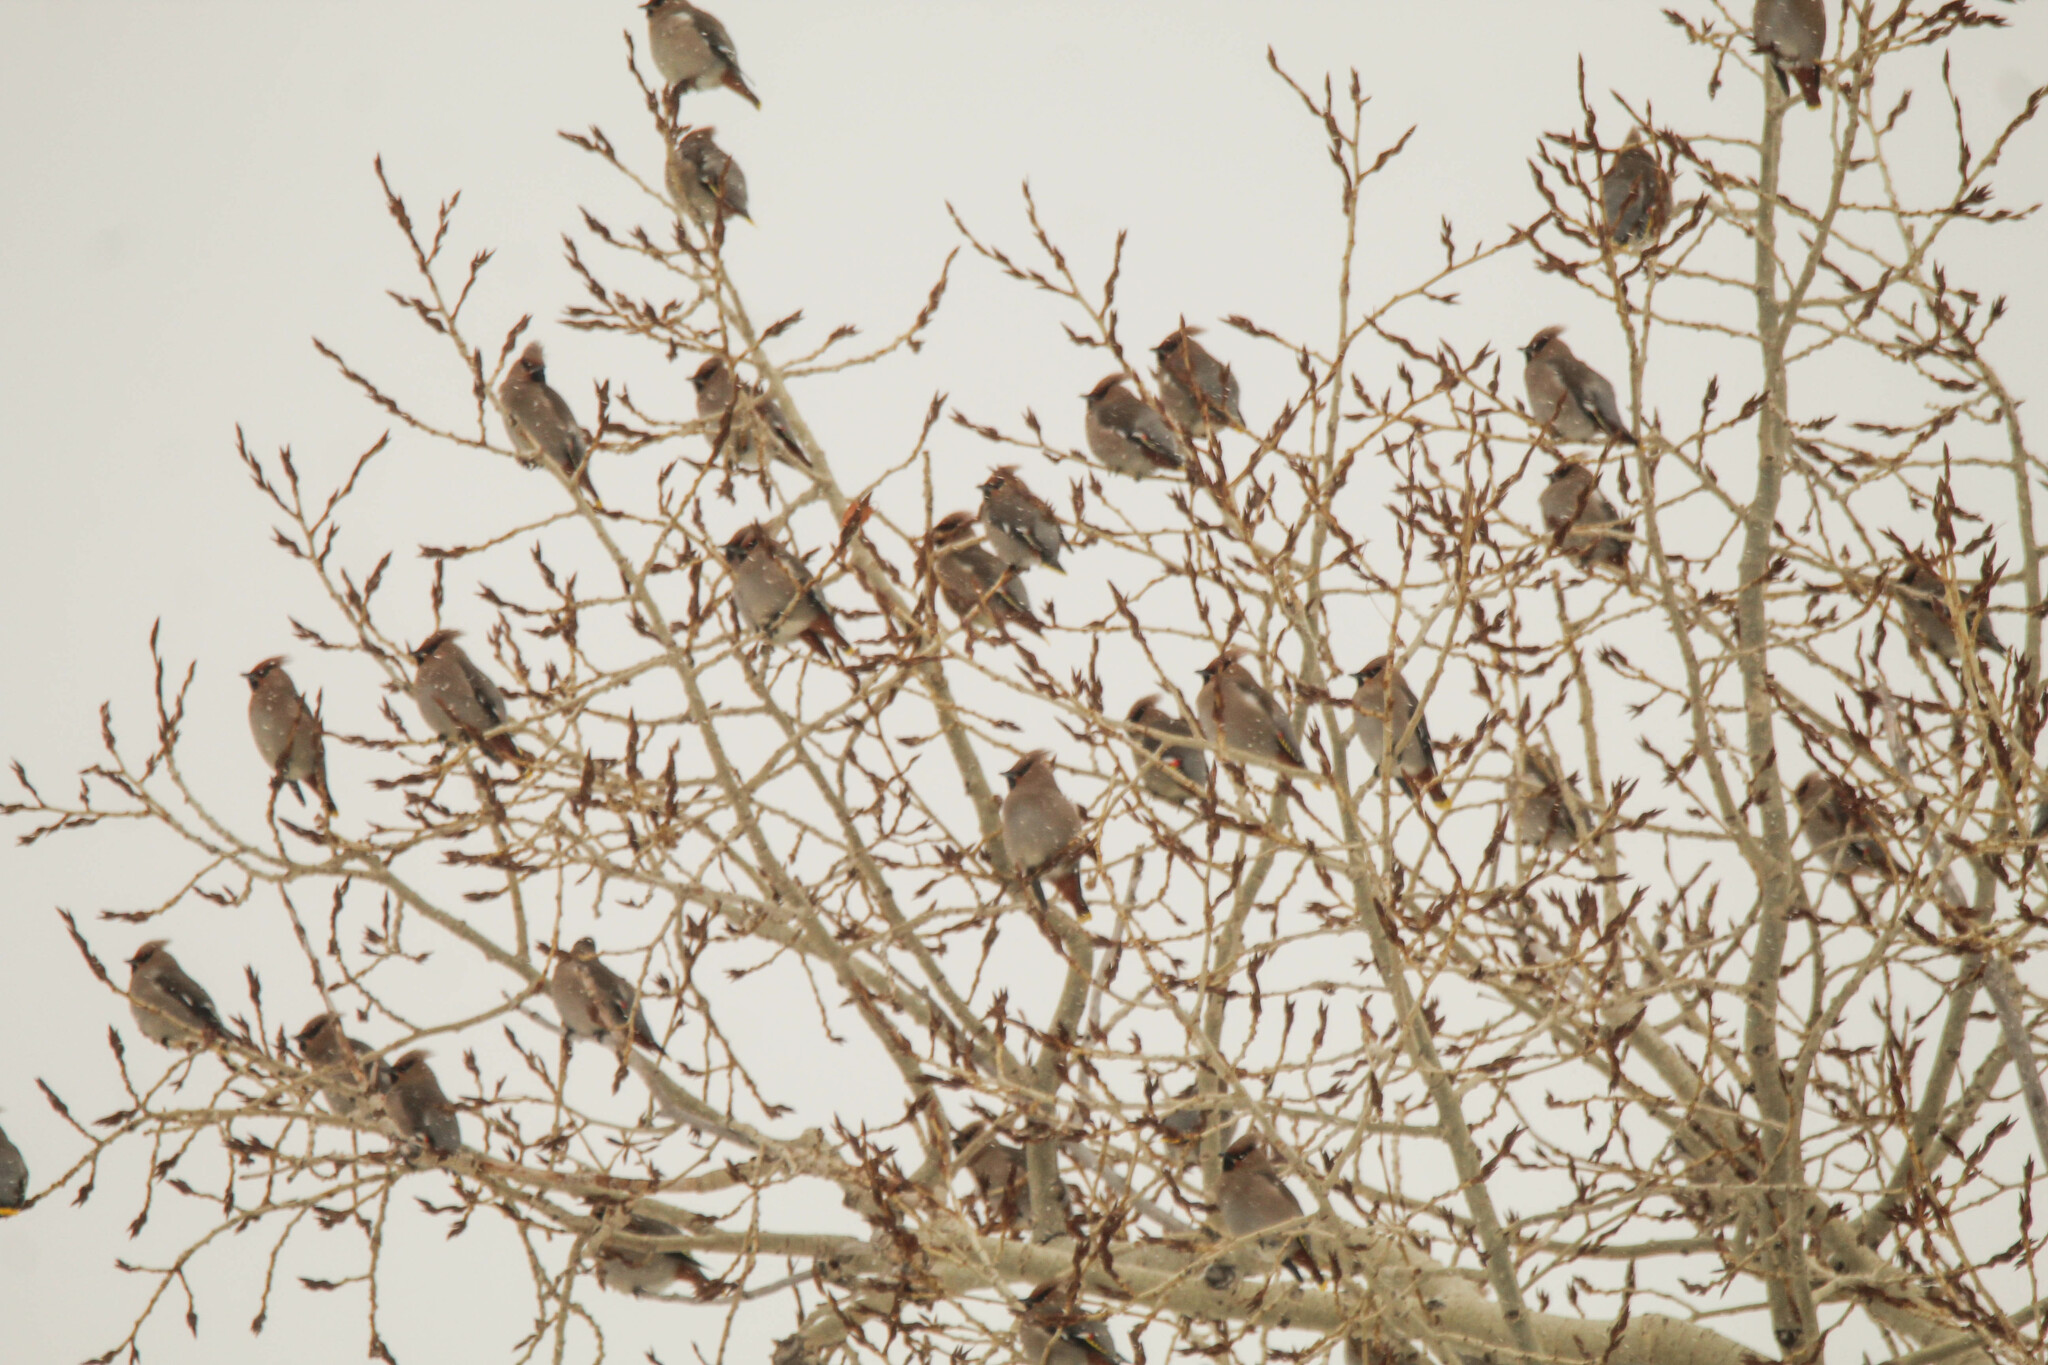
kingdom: Animalia
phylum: Chordata
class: Aves
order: Passeriformes
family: Bombycillidae
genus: Bombycilla
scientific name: Bombycilla garrulus
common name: Bohemian waxwing
